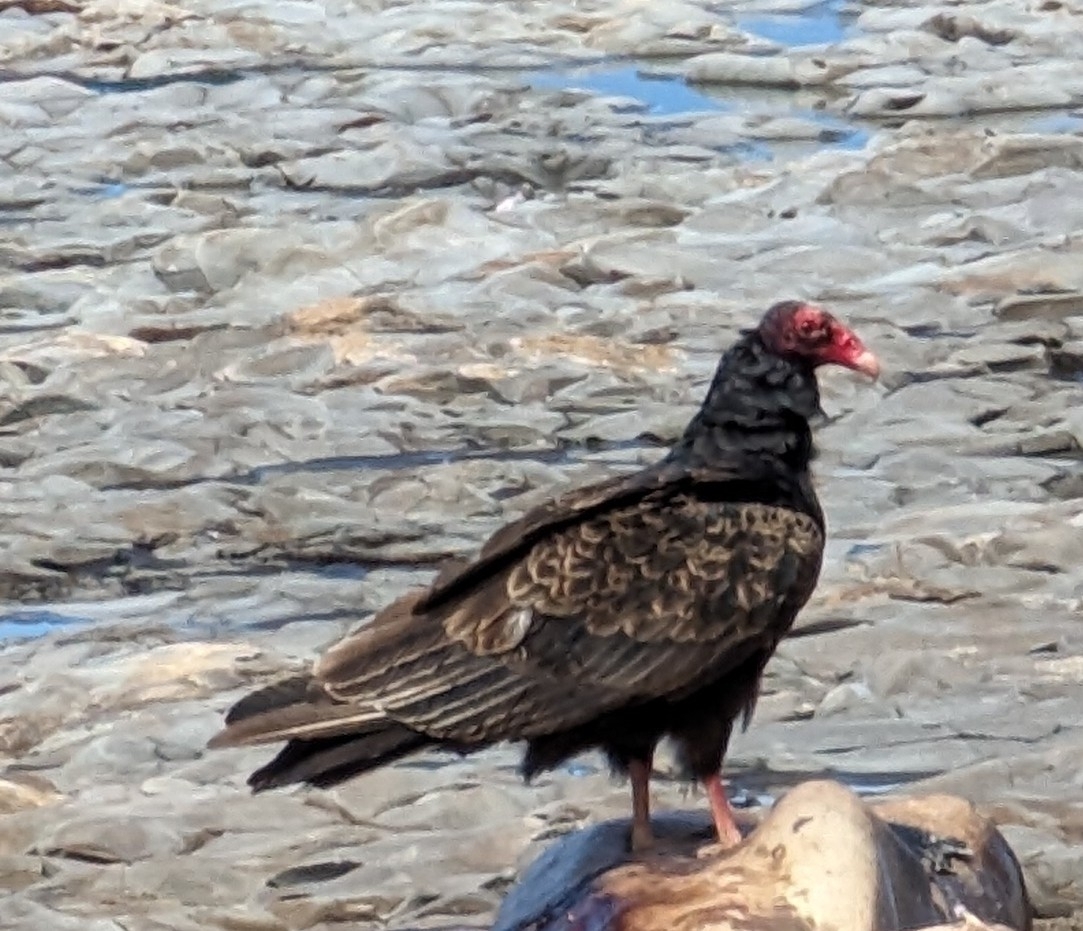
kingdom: Animalia
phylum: Chordata
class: Aves
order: Accipitriformes
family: Cathartidae
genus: Cathartes
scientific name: Cathartes aura
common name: Turkey vulture
